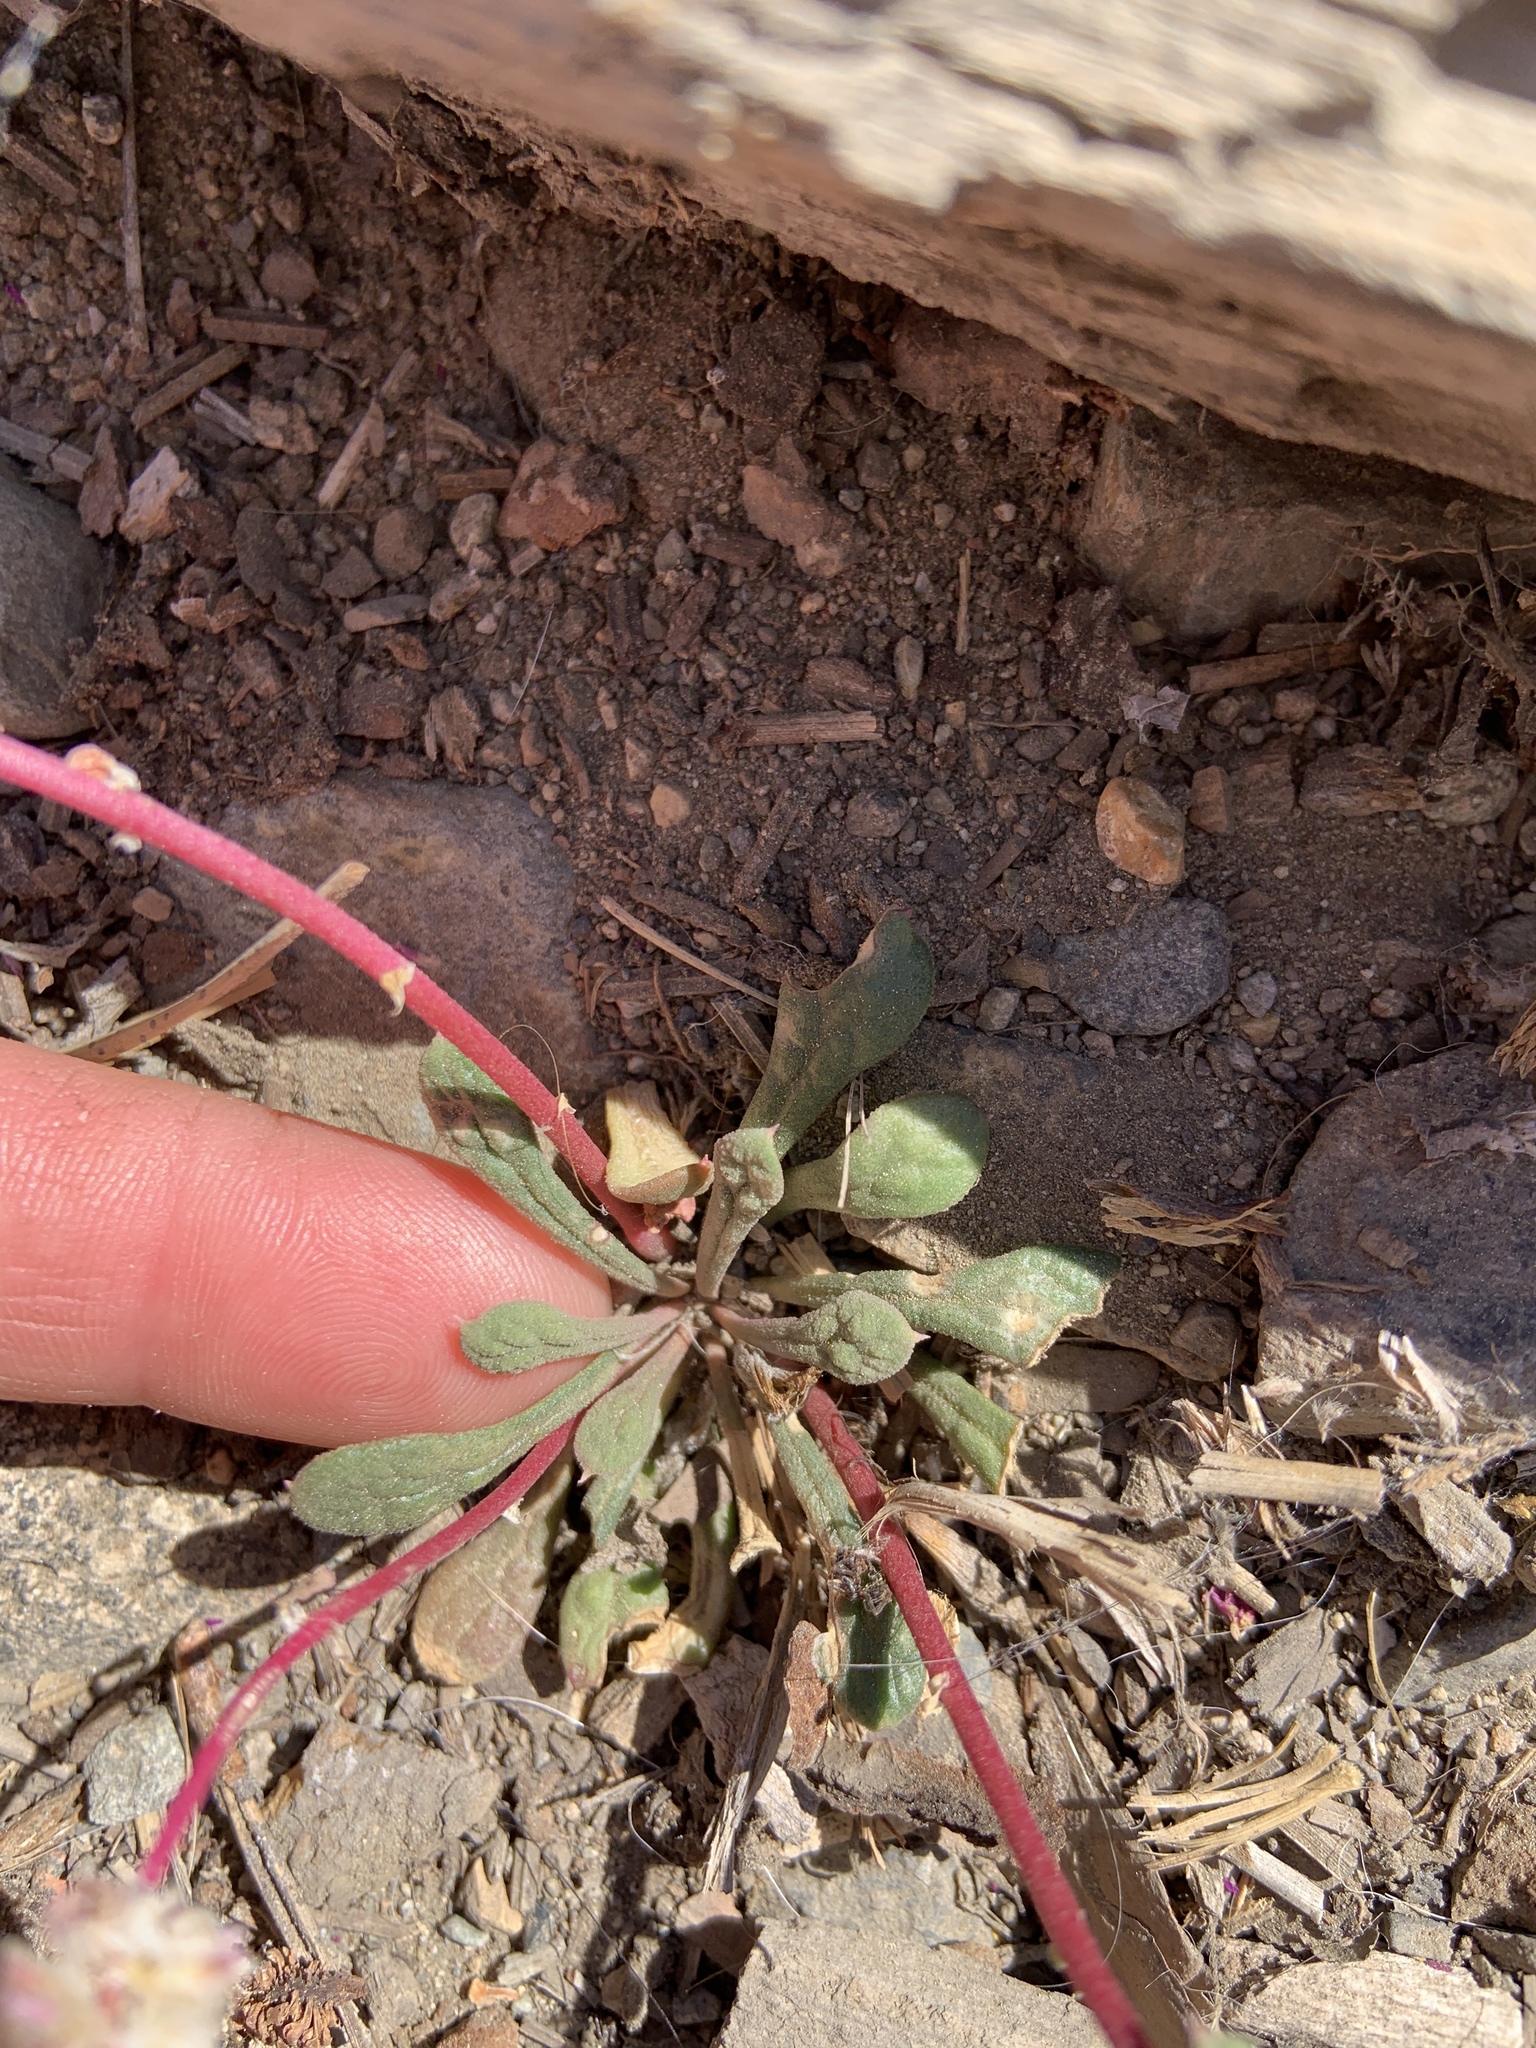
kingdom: Plantae
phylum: Tracheophyta
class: Magnoliopsida
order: Caryophyllales
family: Montiaceae
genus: Calyptridium
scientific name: Calyptridium monospermum
